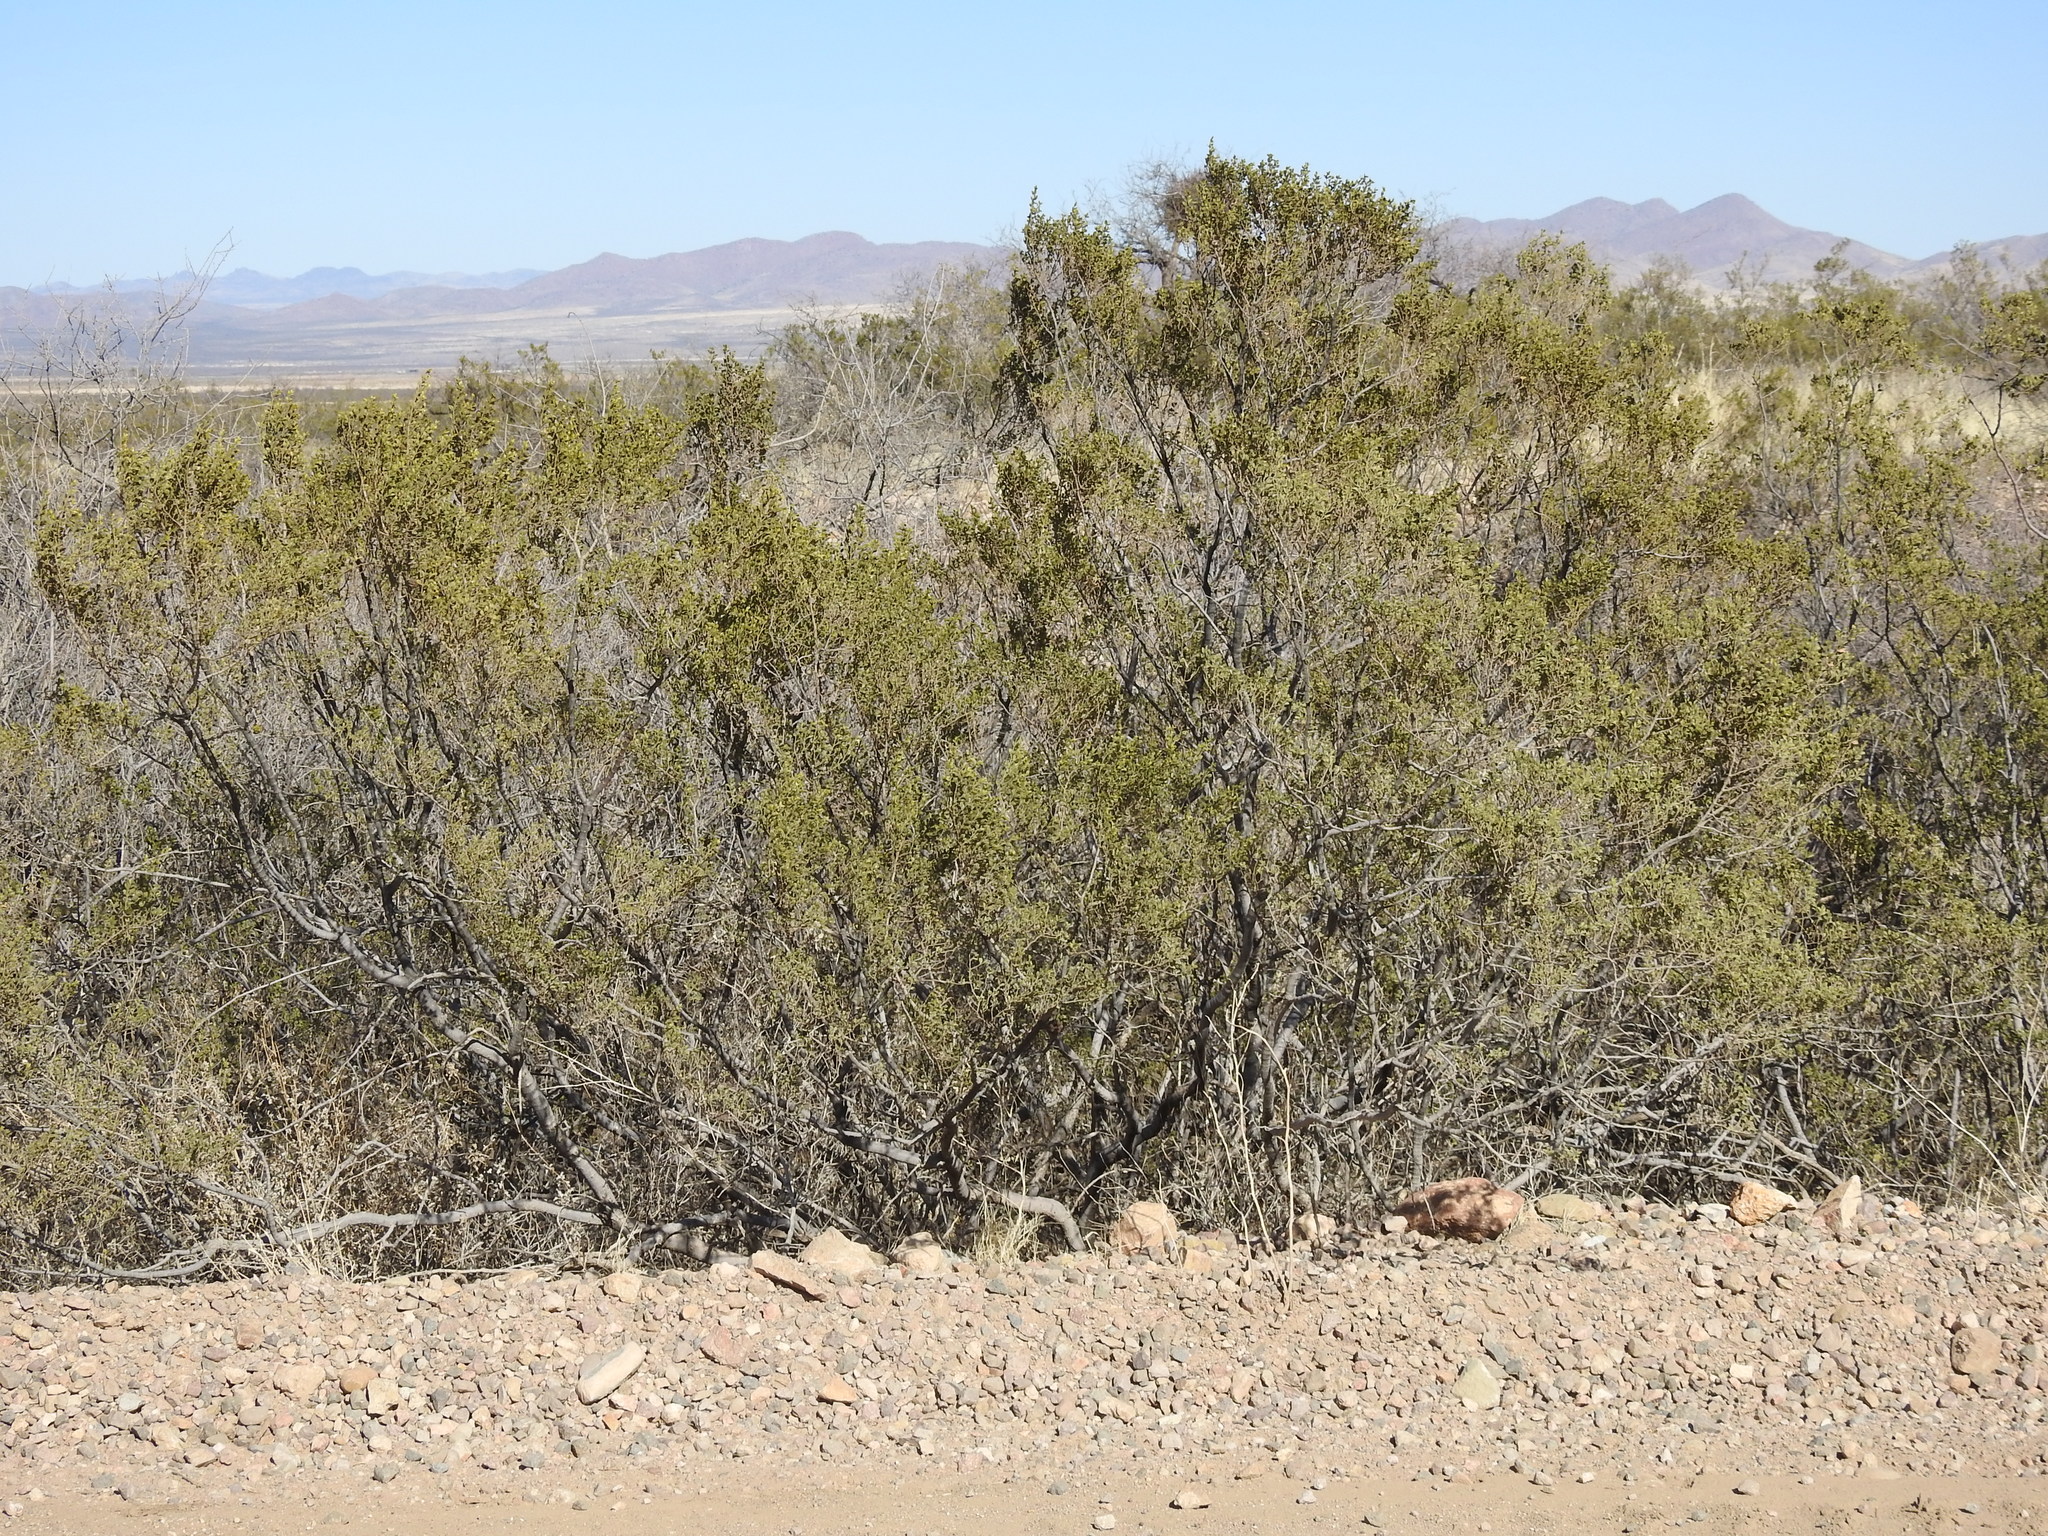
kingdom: Plantae
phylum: Tracheophyta
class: Magnoliopsida
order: Zygophyllales
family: Zygophyllaceae
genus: Larrea
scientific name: Larrea tridentata
